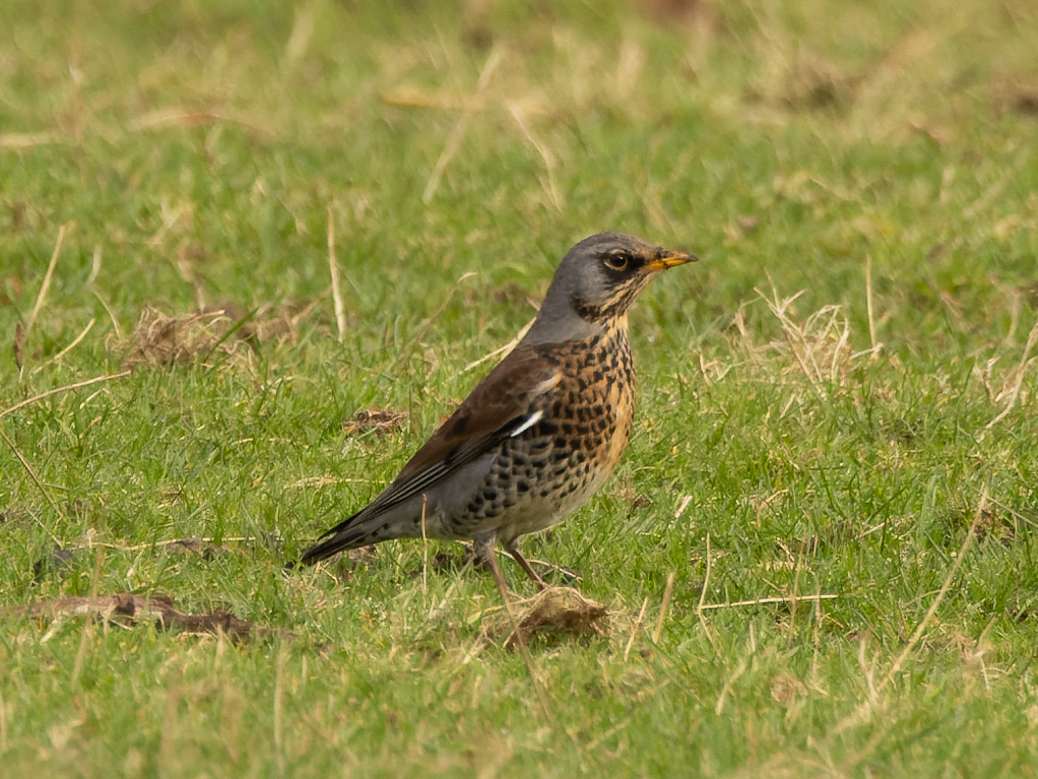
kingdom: Animalia
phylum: Chordata
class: Aves
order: Passeriformes
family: Turdidae
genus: Turdus
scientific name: Turdus pilaris
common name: Fieldfare
